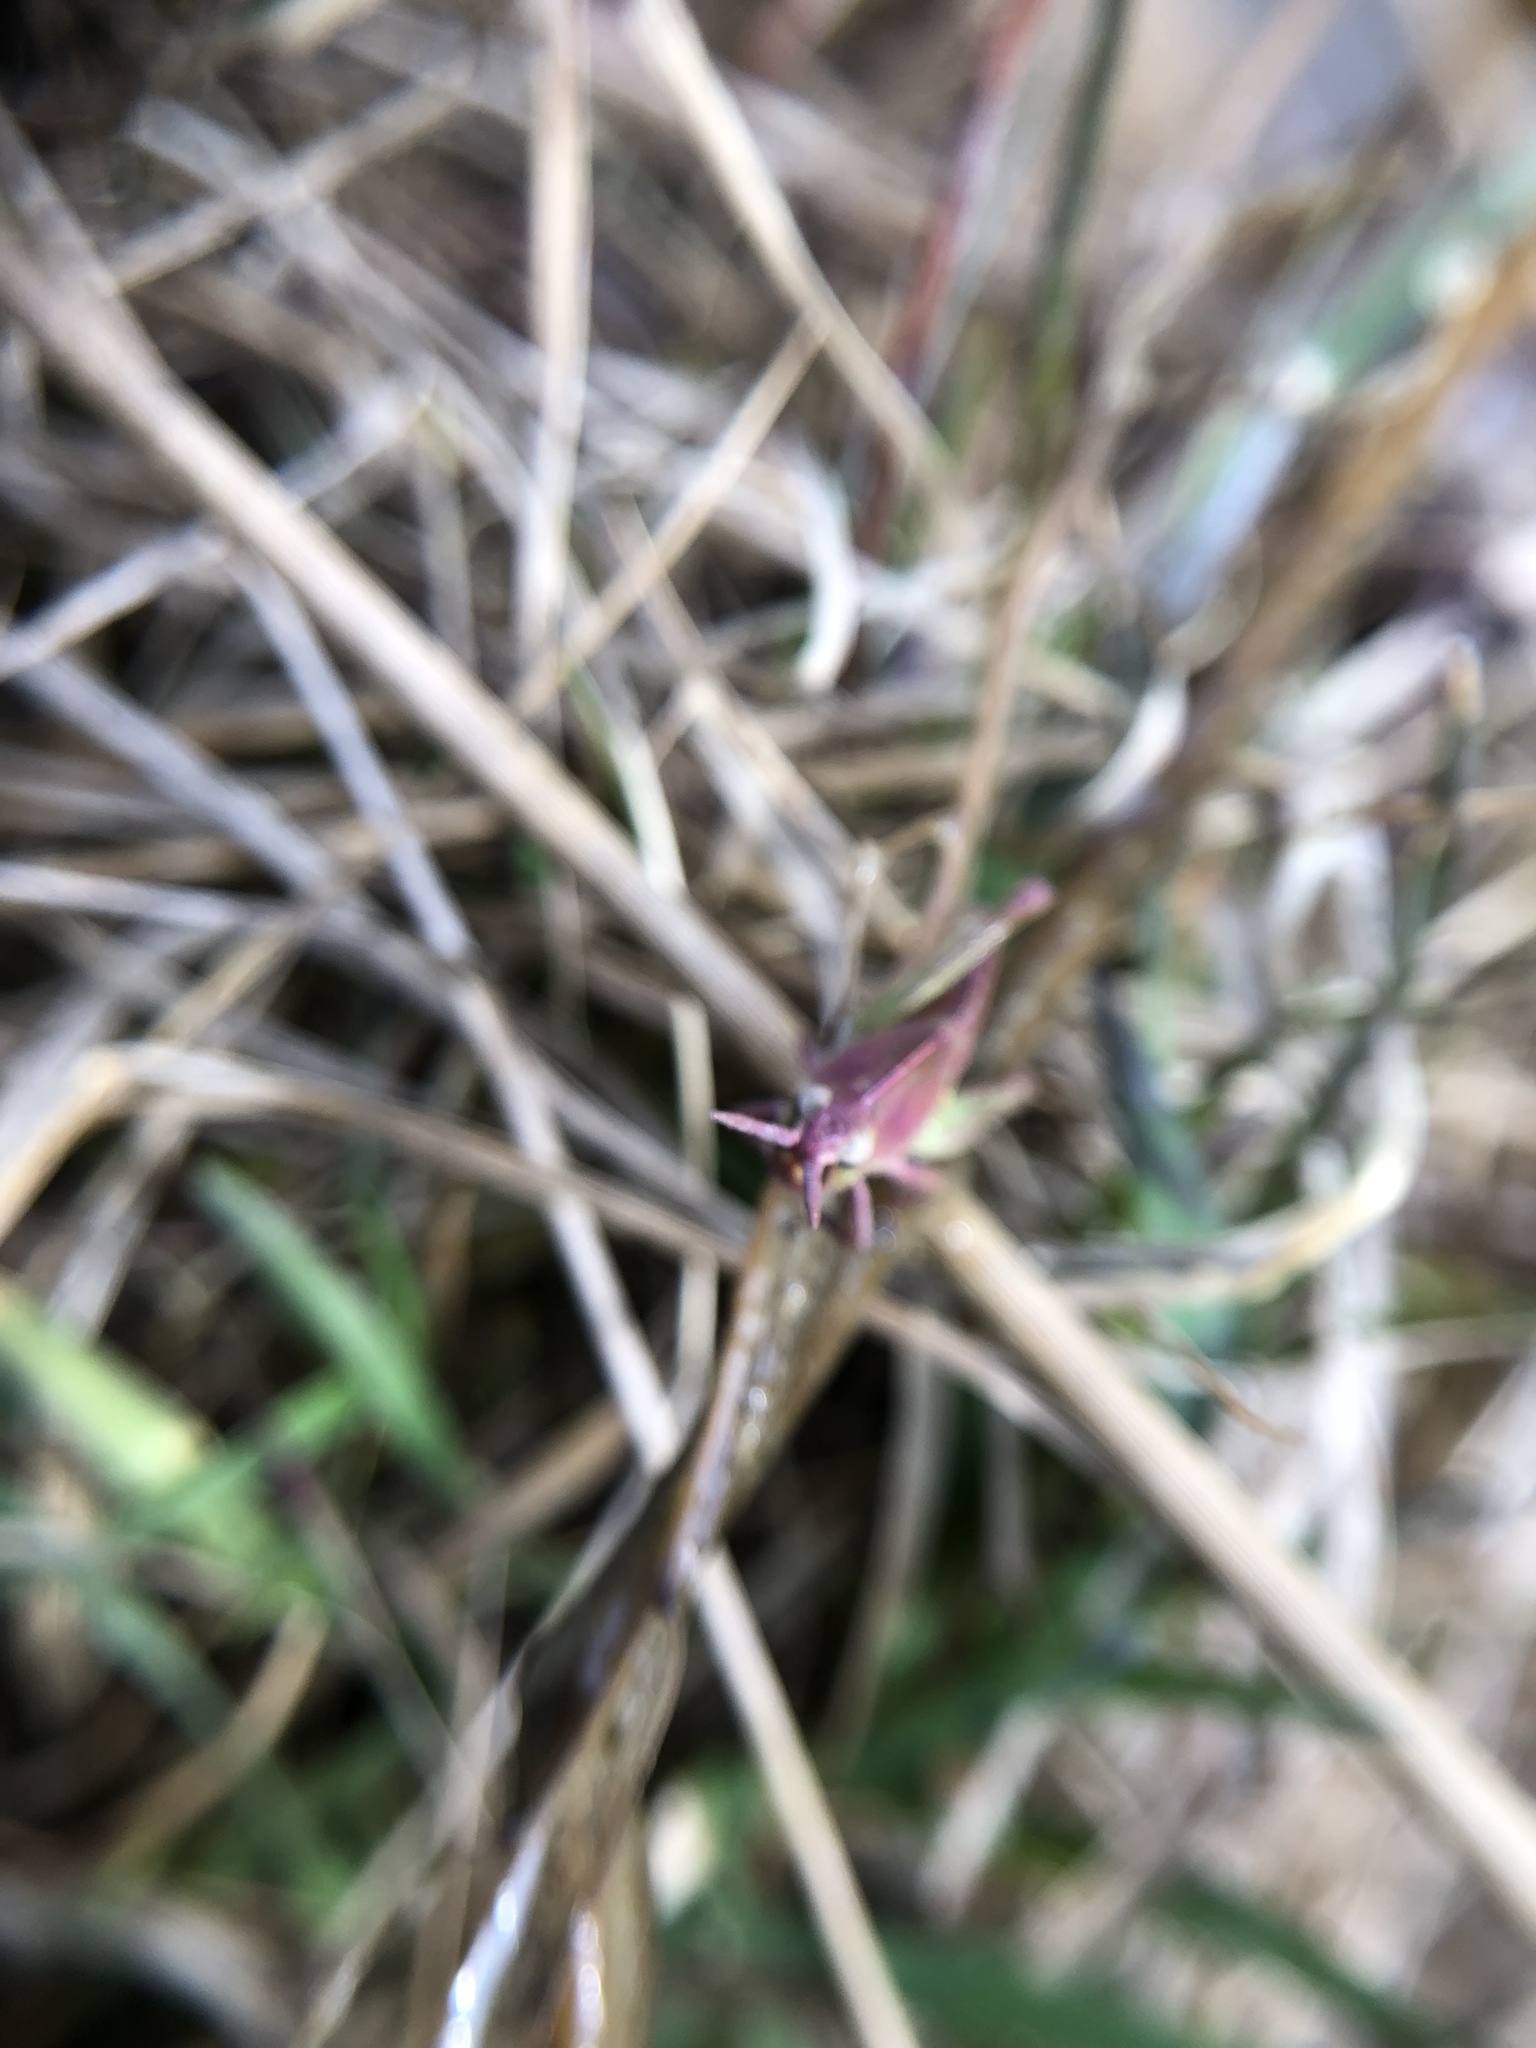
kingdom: Animalia
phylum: Arthropoda
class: Insecta
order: Orthoptera
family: Acrididae
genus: Chortophaga
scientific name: Chortophaga viridifasciata
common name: Green-striped grasshopper
